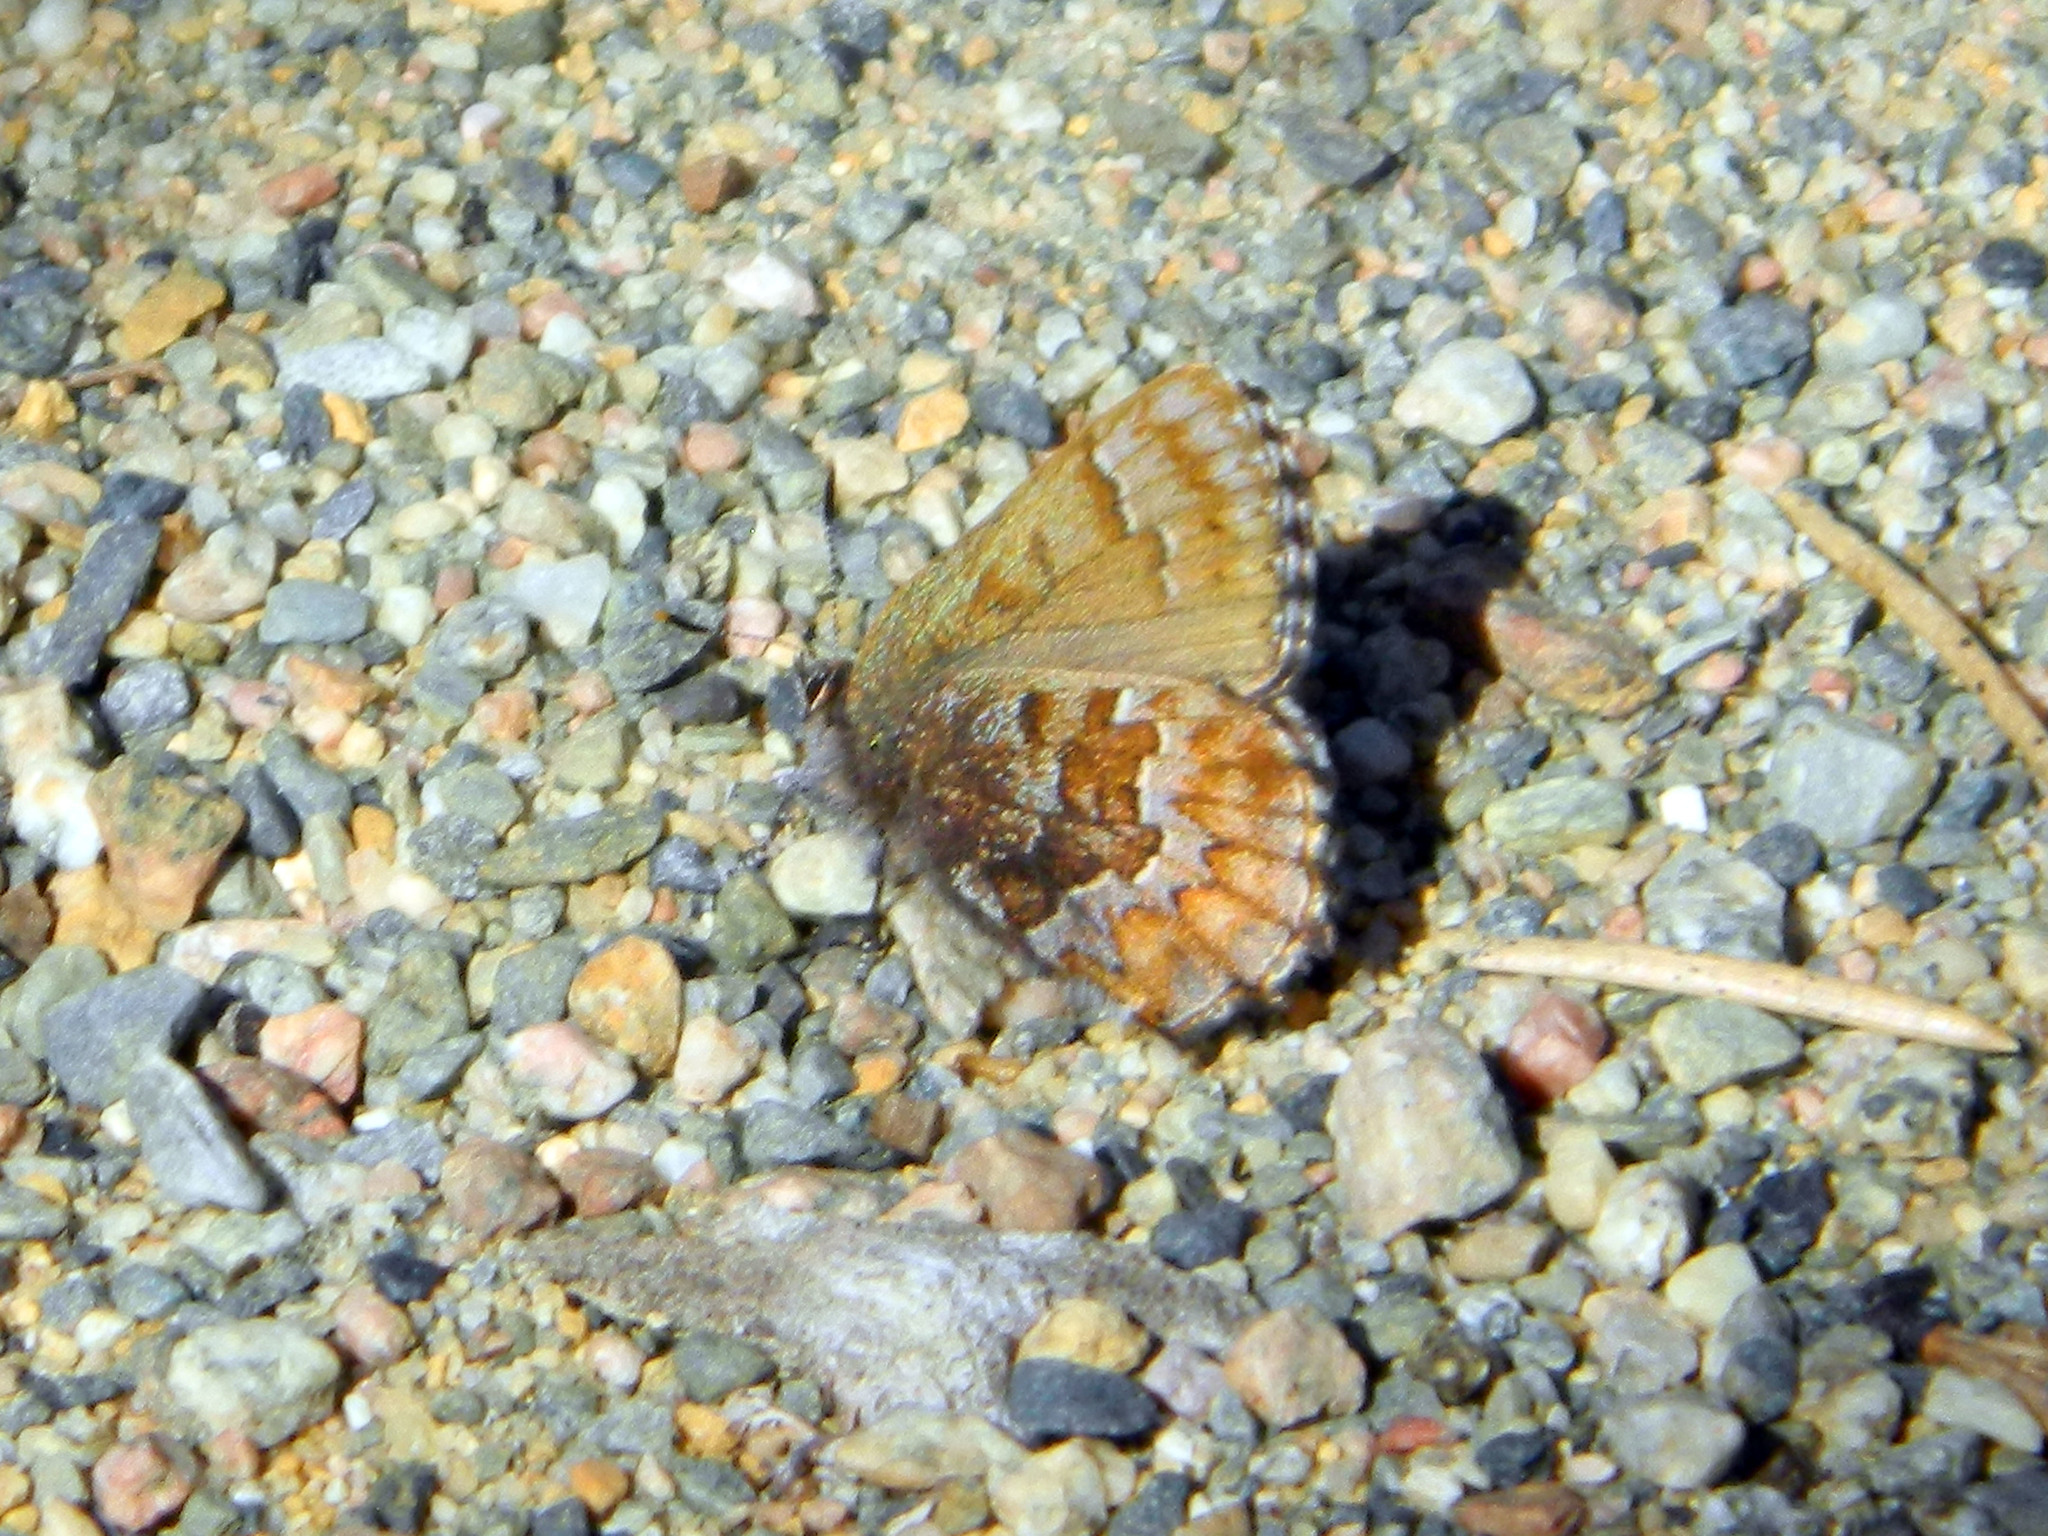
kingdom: Animalia
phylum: Arthropoda
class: Insecta
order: Lepidoptera
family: Lycaenidae
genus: Incisalia
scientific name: Incisalia niphon
